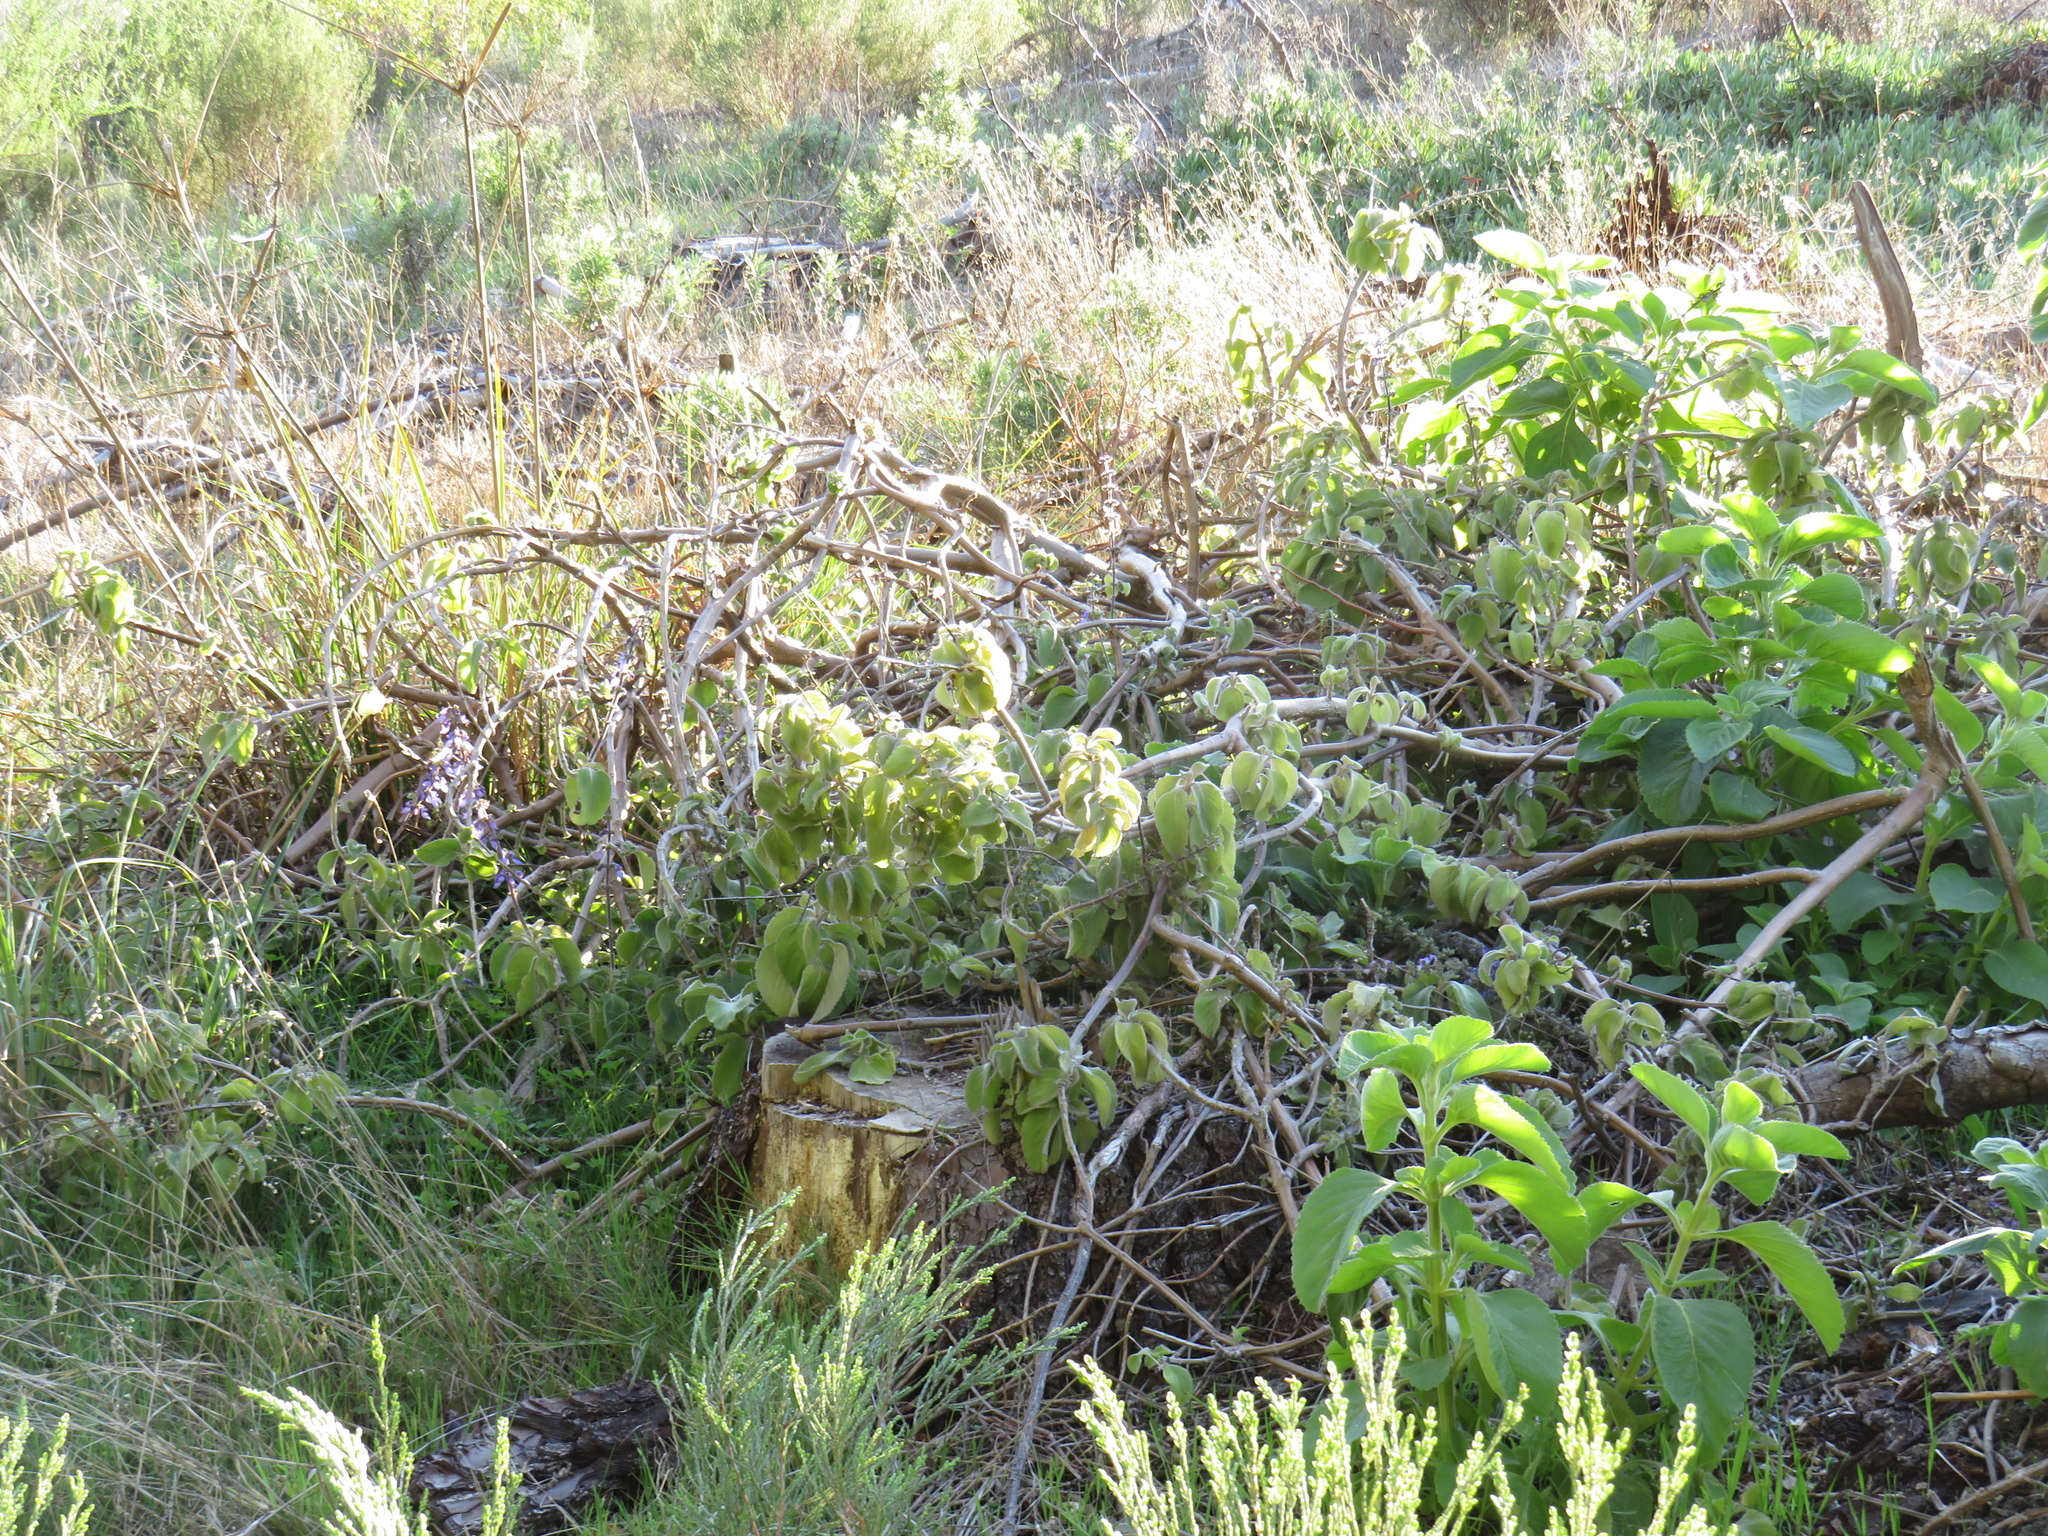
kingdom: Plantae
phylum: Tracheophyta
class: Magnoliopsida
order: Lamiales
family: Lamiaceae
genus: Coleus
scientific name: Coleus barbatus
